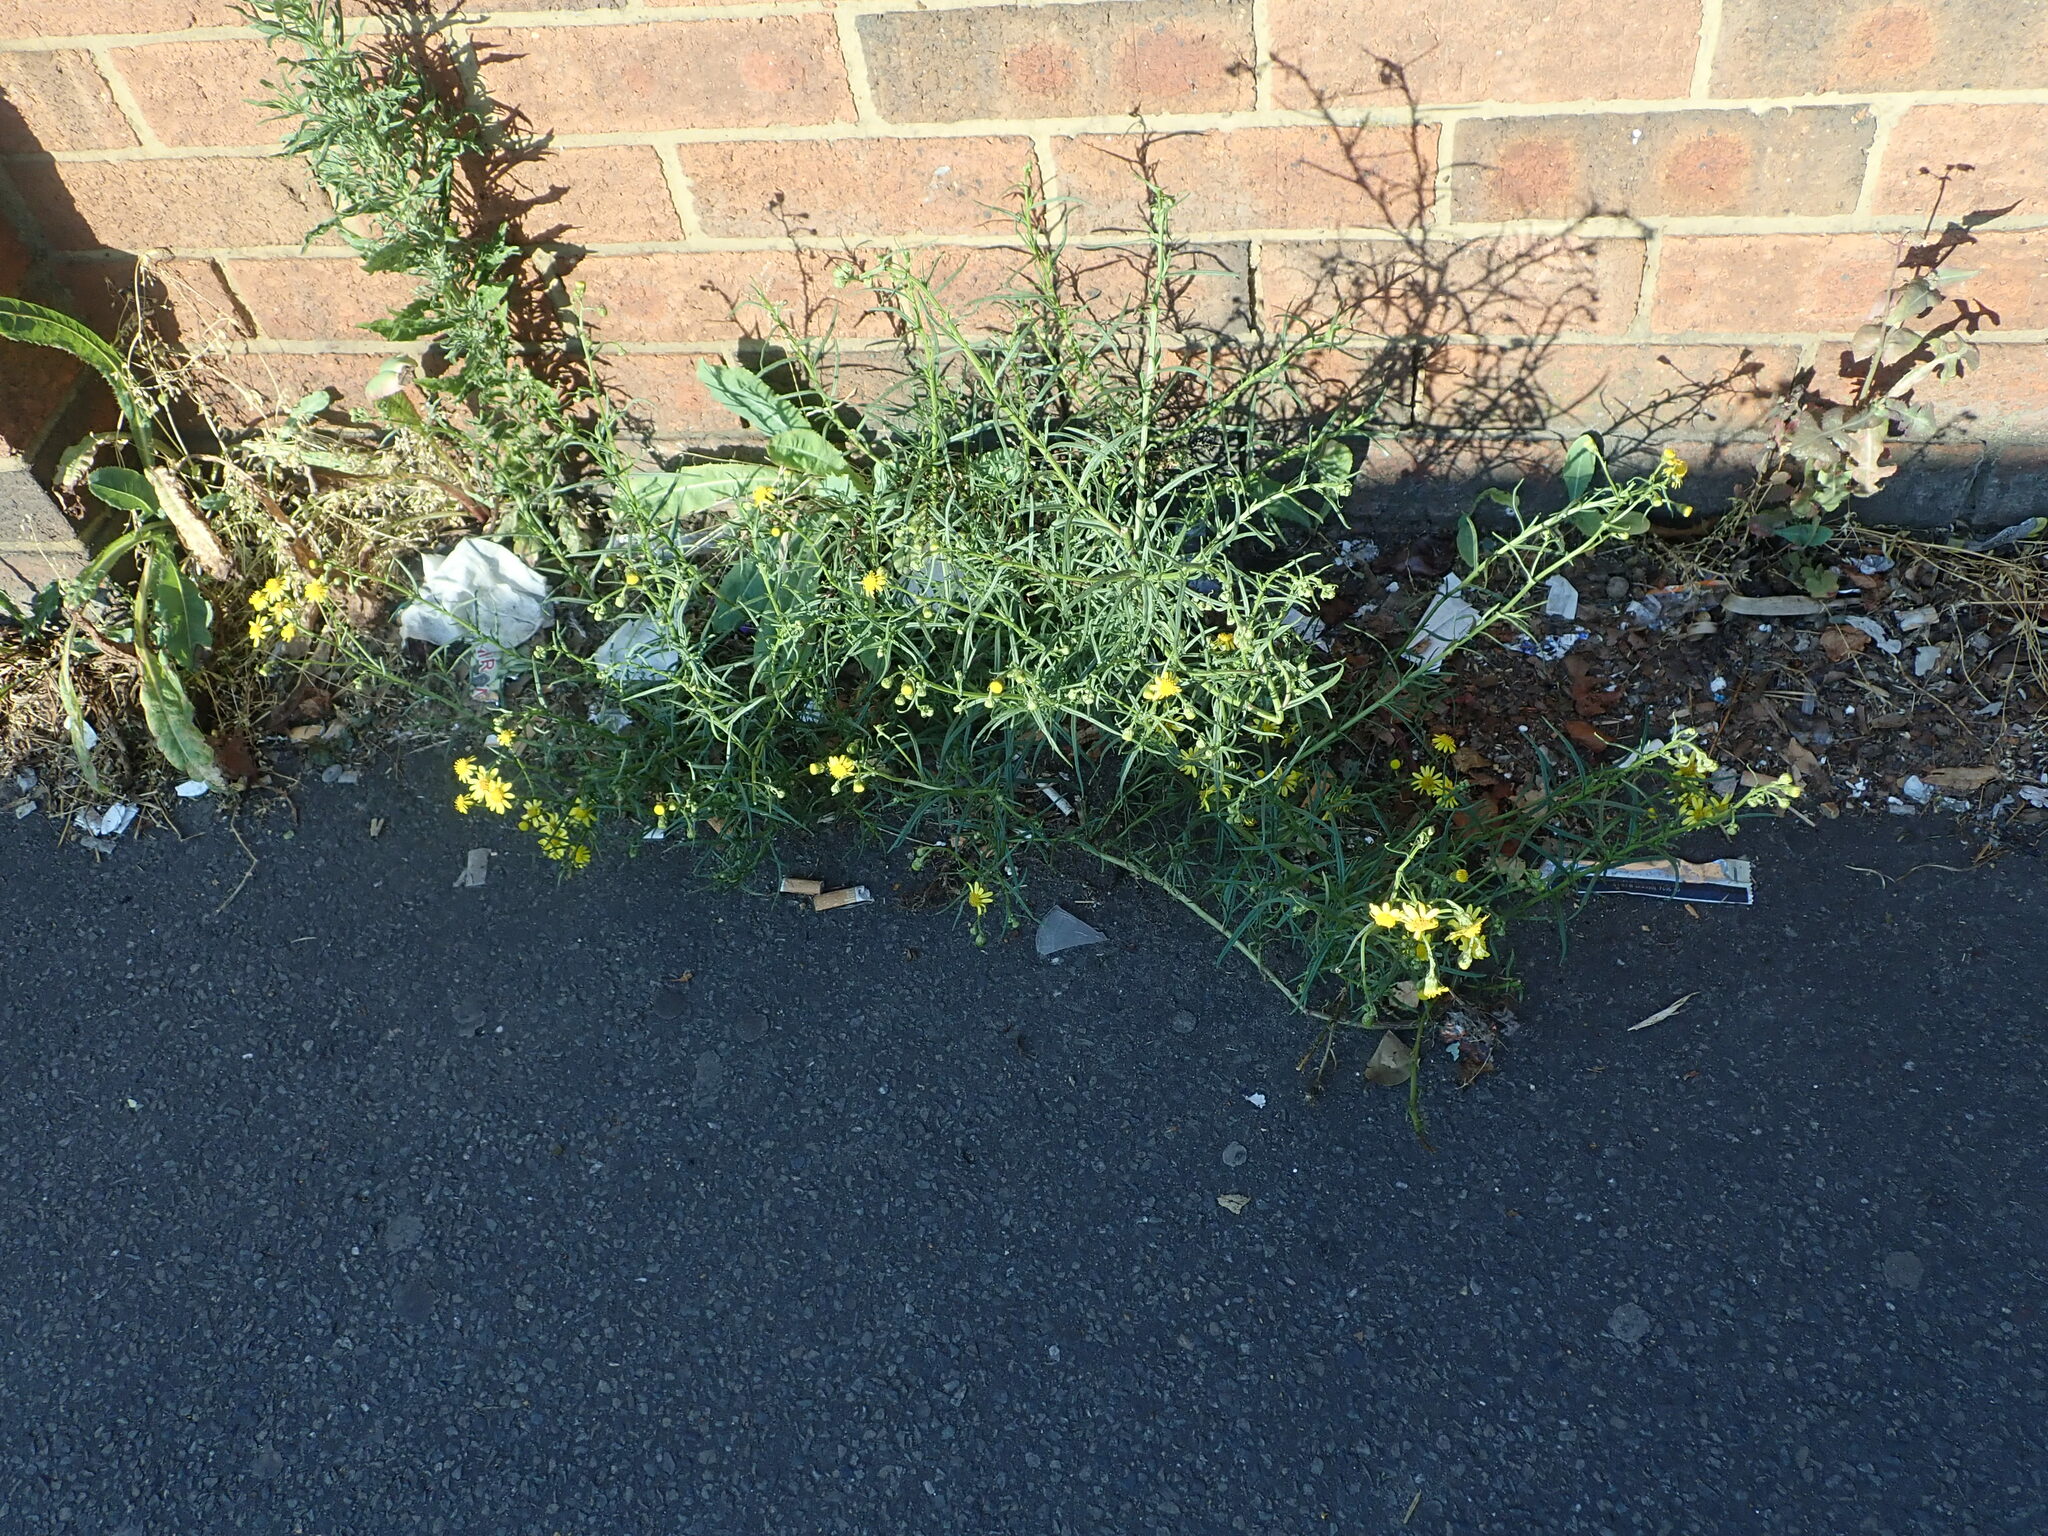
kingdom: Plantae
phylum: Tracheophyta
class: Magnoliopsida
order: Asterales
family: Asteraceae
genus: Senecio
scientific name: Senecio inaequidens
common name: Narrow-leaved ragwort
